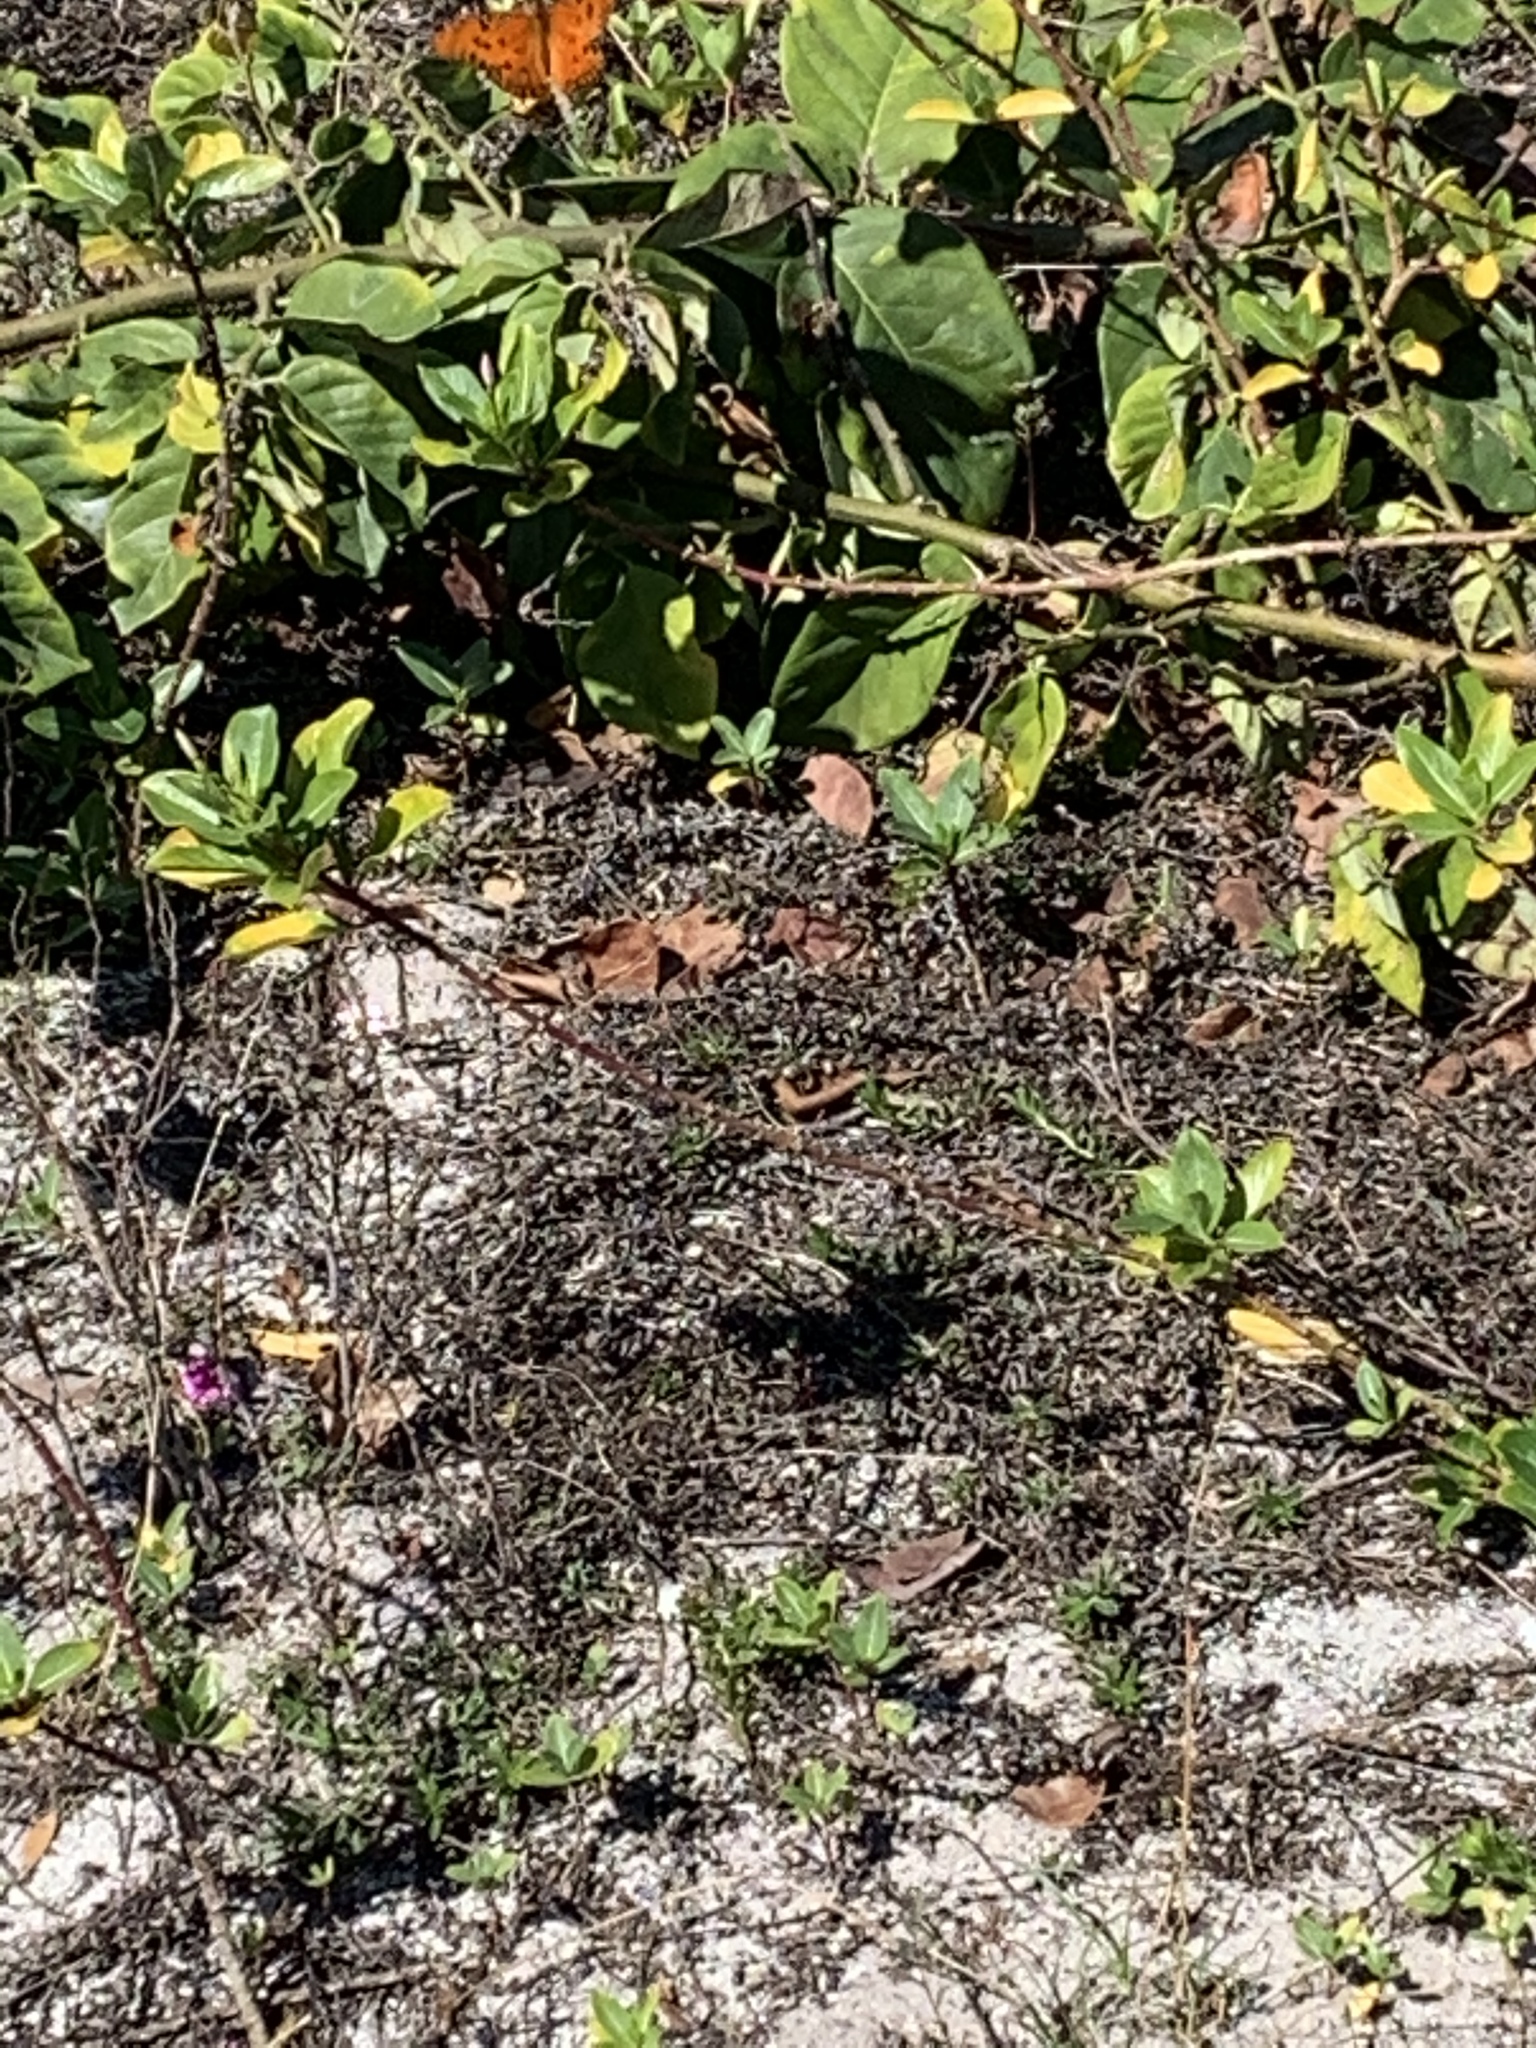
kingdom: Animalia
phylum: Arthropoda
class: Insecta
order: Lepidoptera
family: Nymphalidae
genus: Dione
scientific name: Dione vanillae
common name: Gulf fritillary
